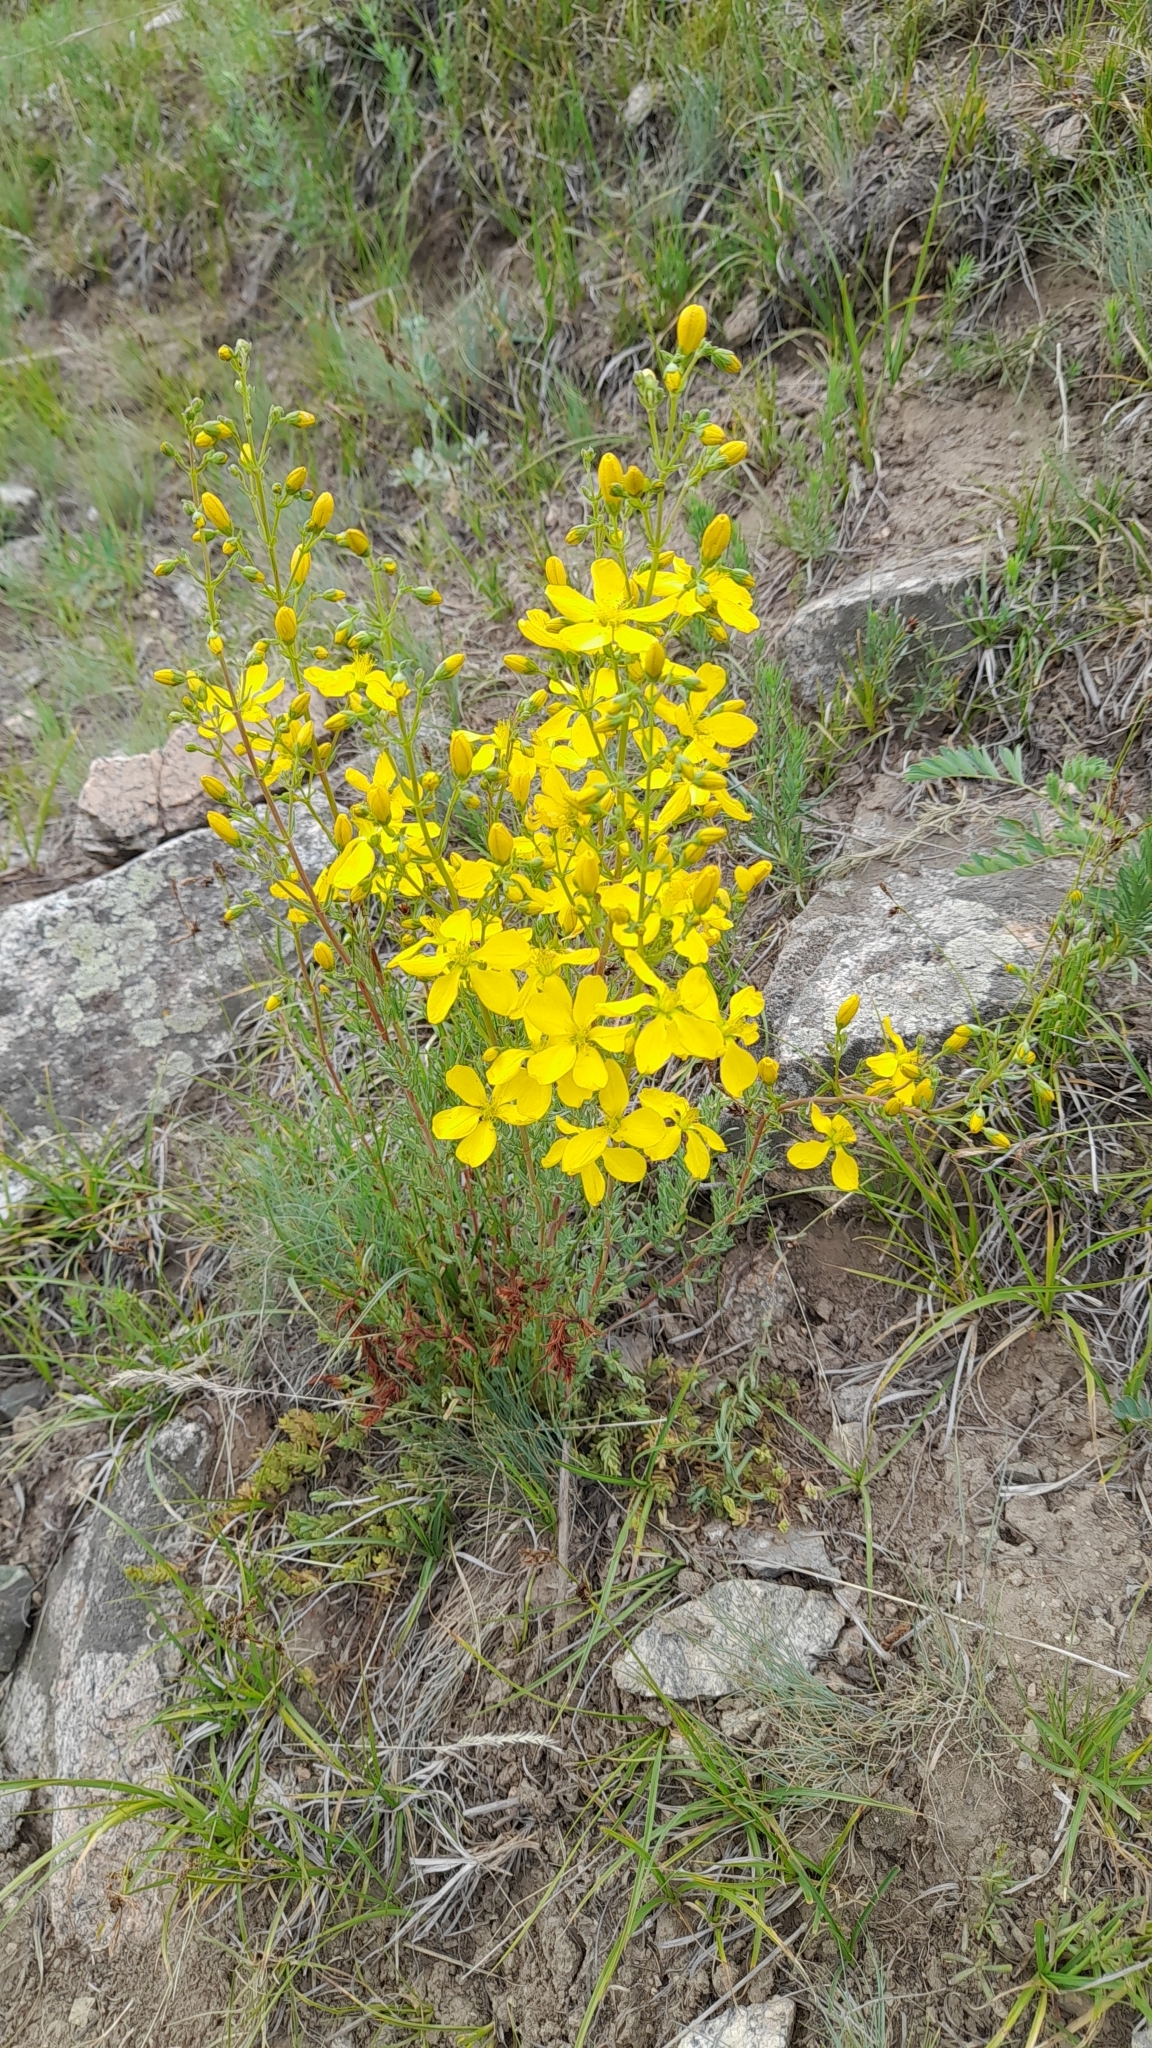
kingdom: Plantae
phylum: Tracheophyta
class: Magnoliopsida
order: Malpighiales
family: Hypericaceae
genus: Hypericum
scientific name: Hypericum elongatum
